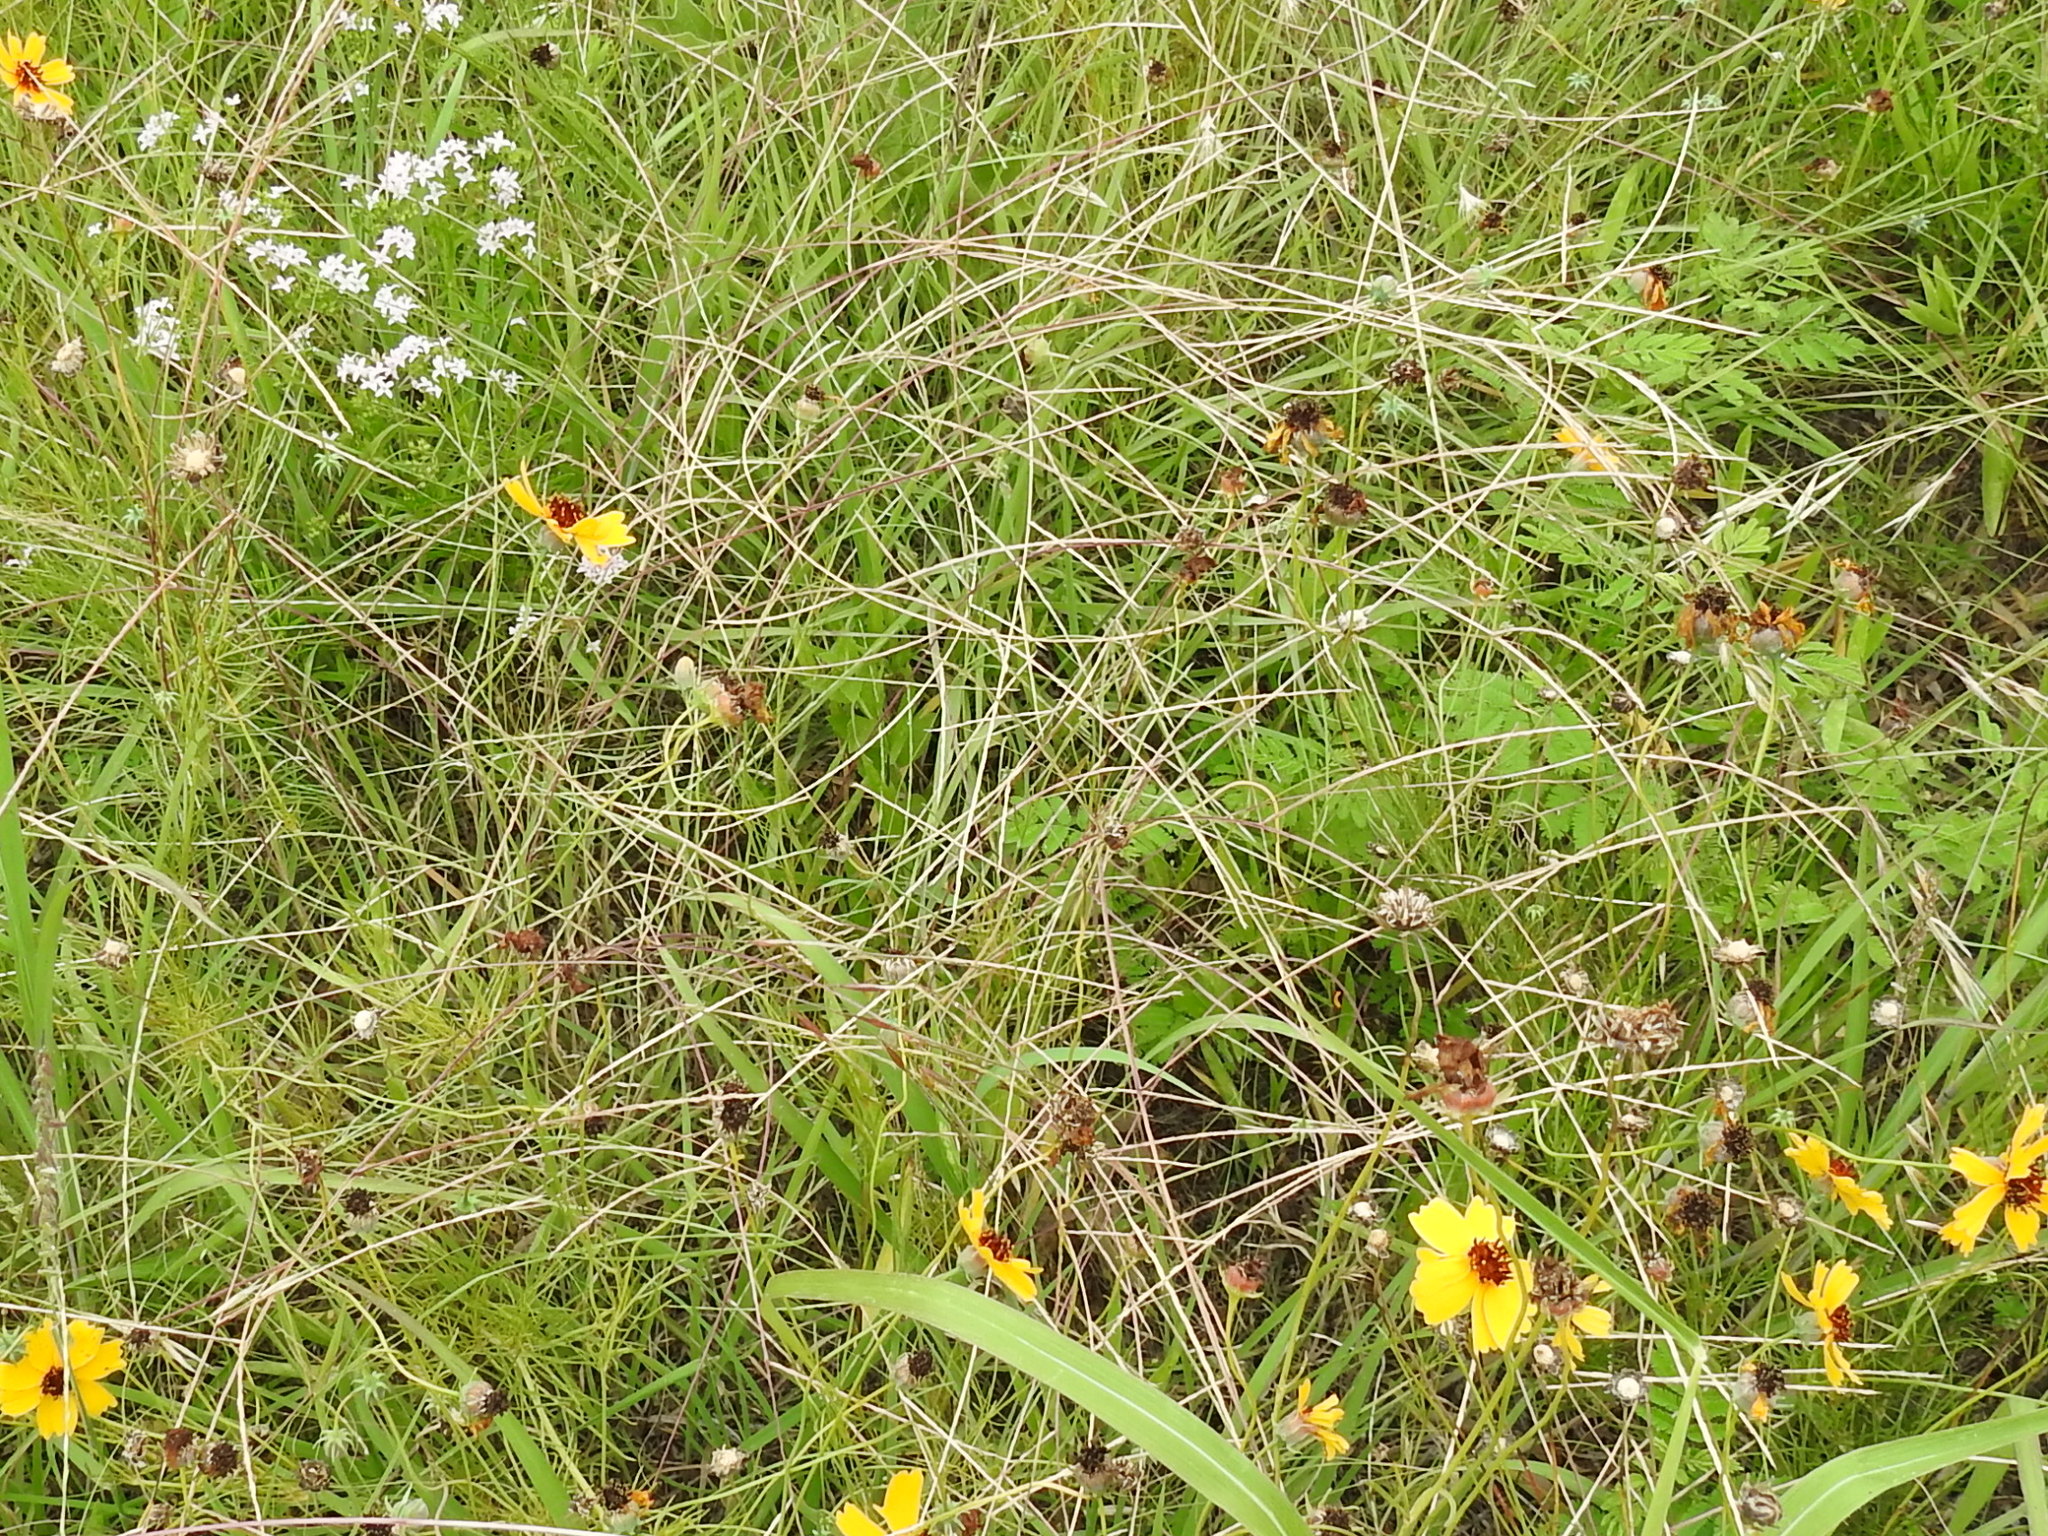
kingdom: Plantae
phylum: Tracheophyta
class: Liliopsida
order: Poales
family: Poaceae
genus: Muhlenbergia
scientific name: Muhlenbergia paniculata
